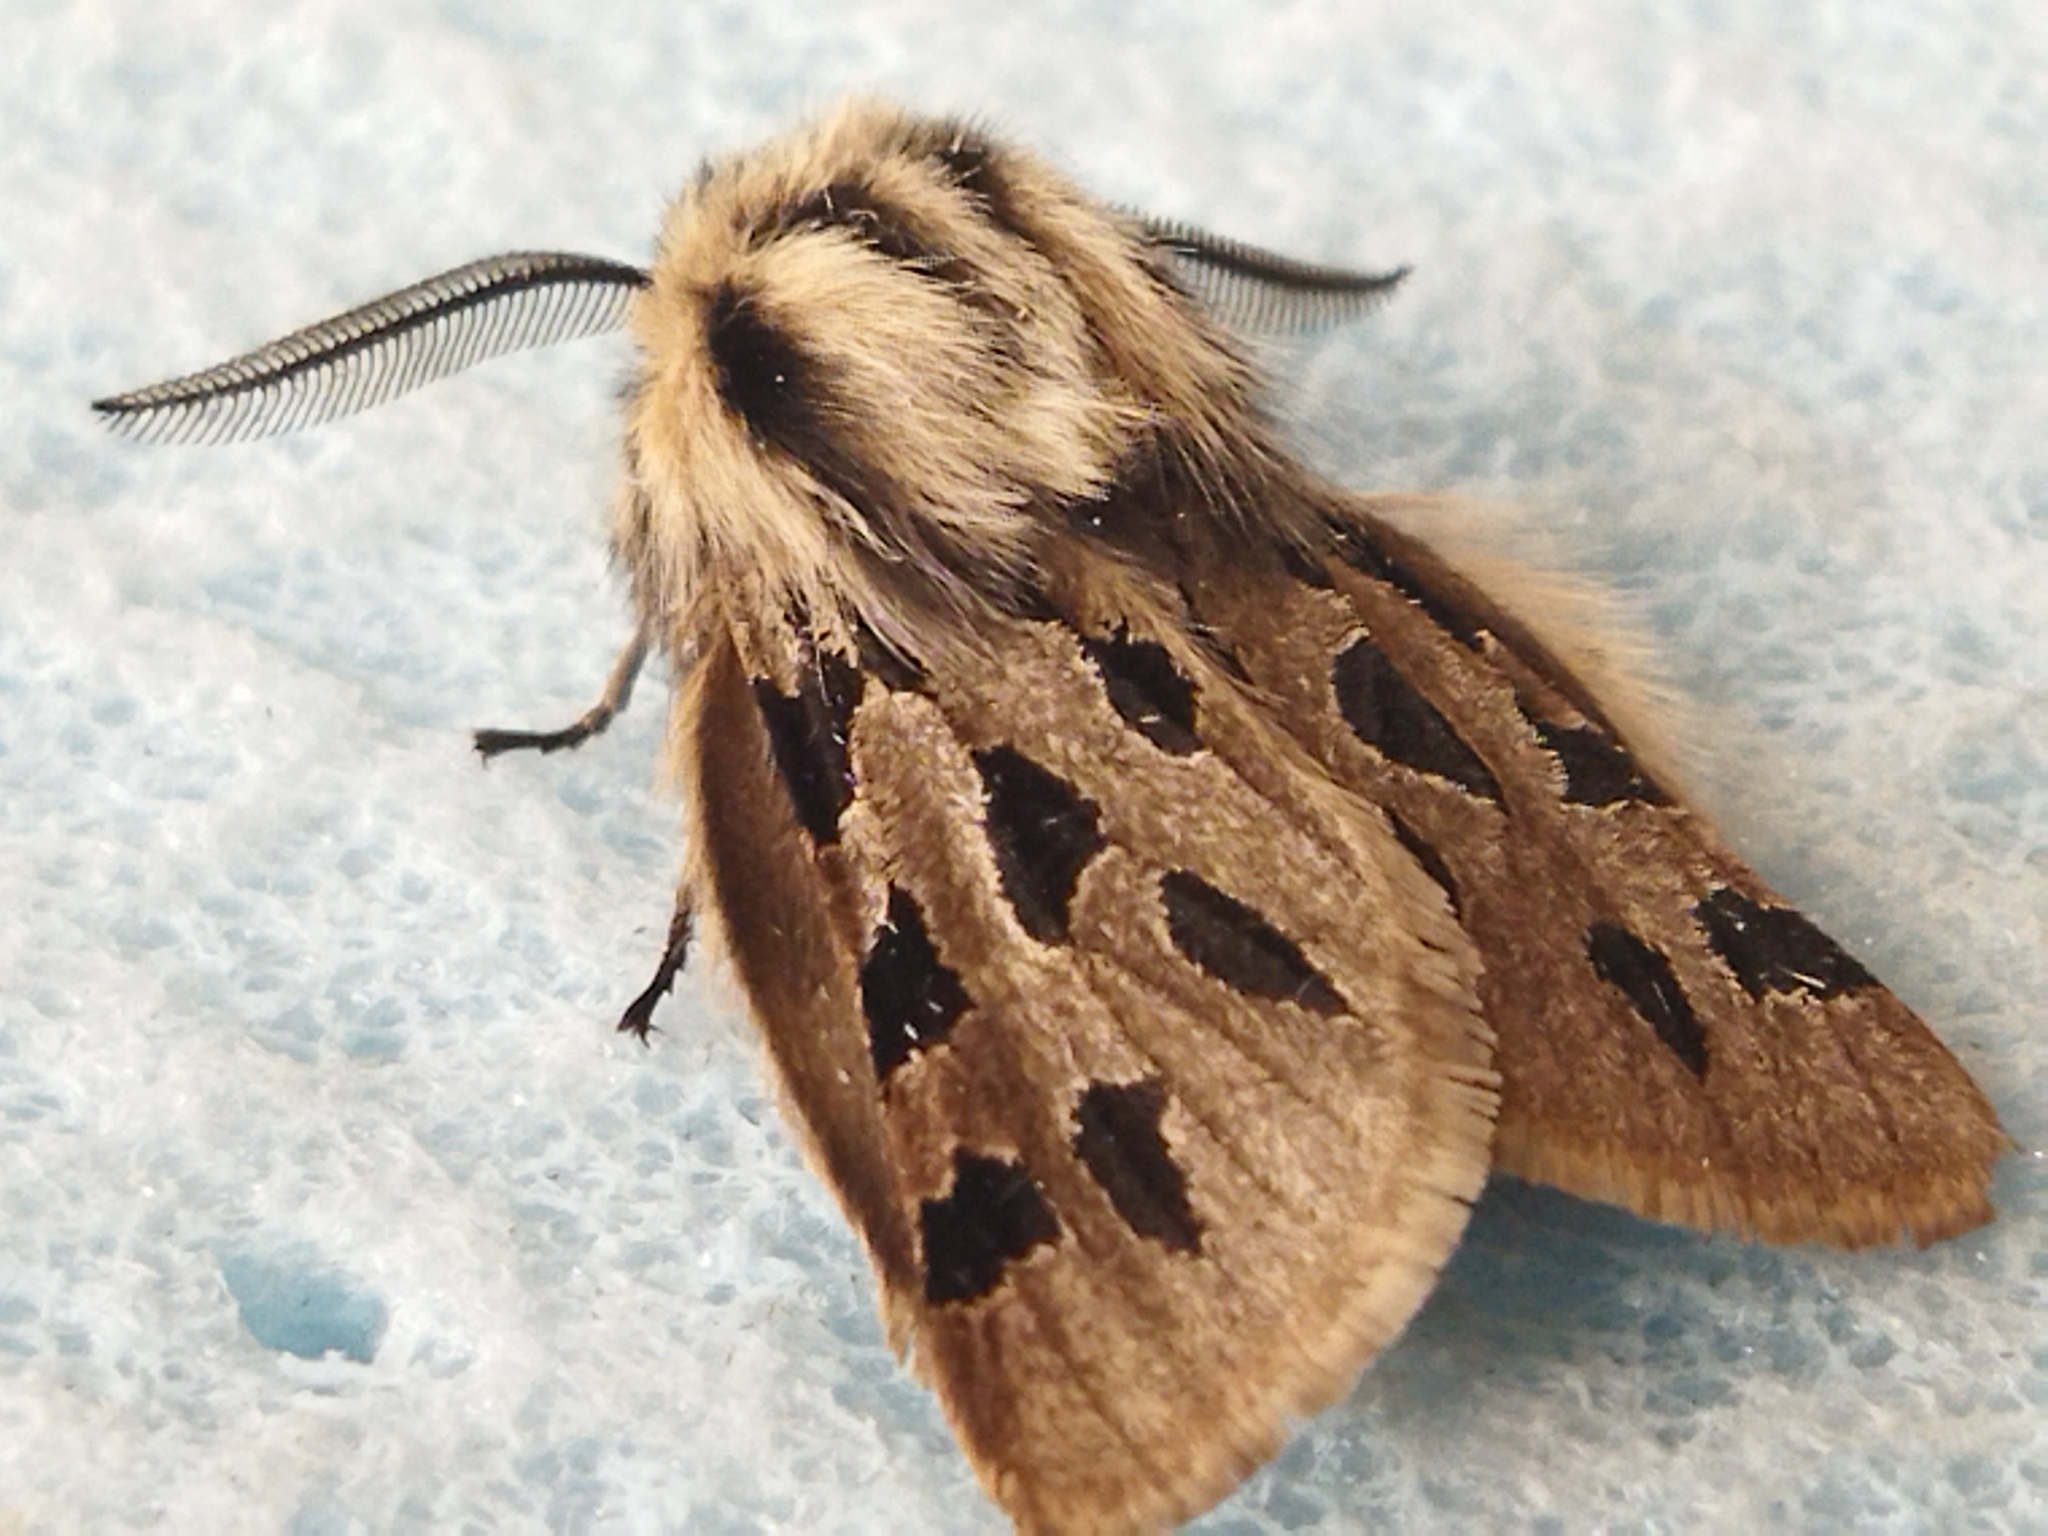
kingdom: Animalia
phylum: Arthropoda
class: Insecta
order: Lepidoptera
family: Erebidae
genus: Ocnogyna
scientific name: Ocnogyna parasita
